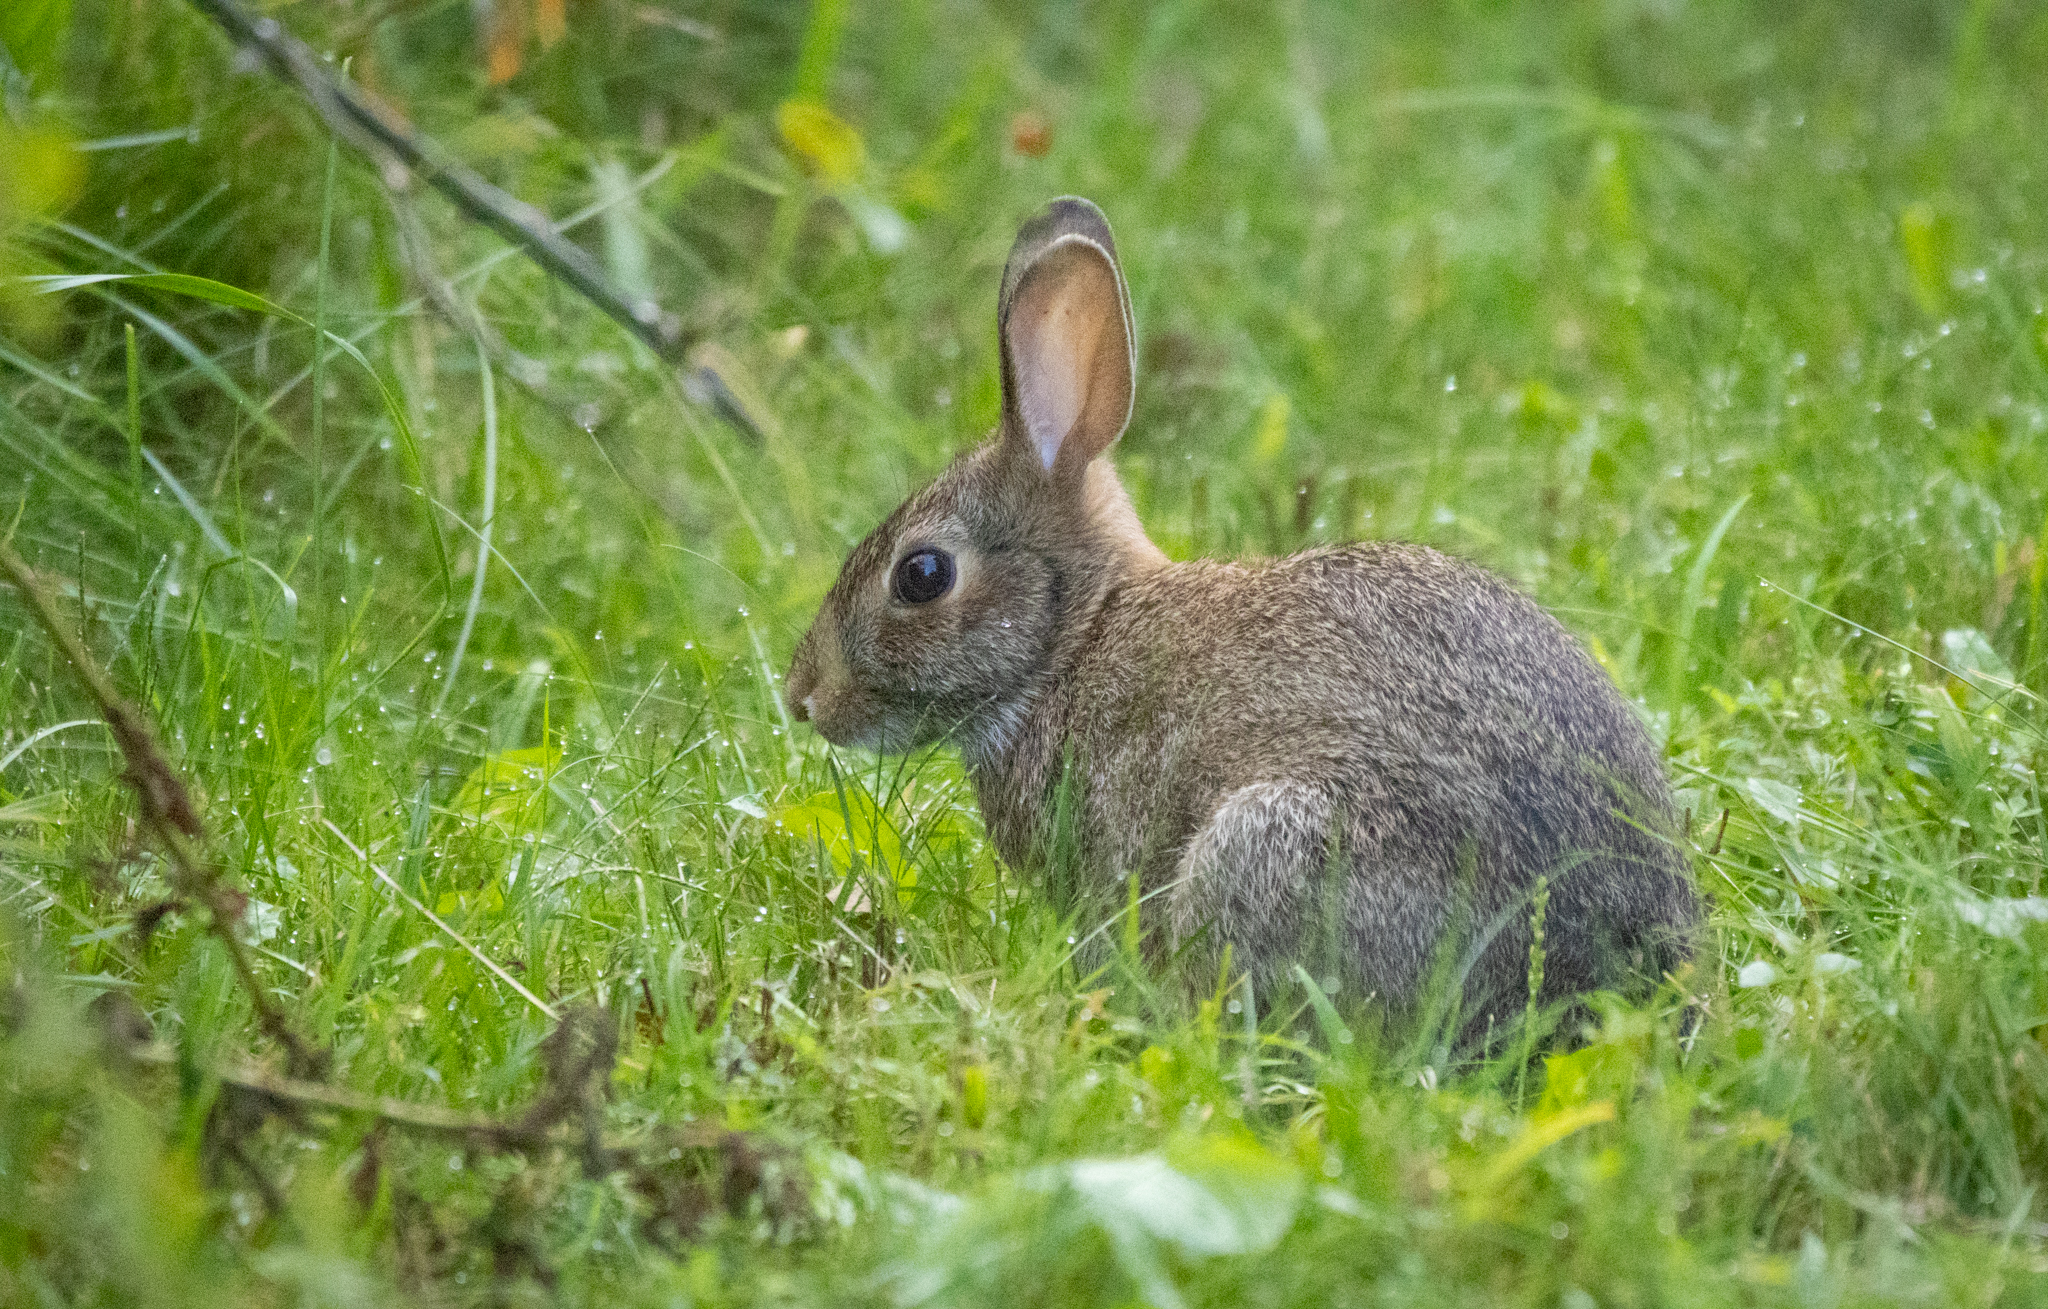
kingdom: Animalia
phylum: Chordata
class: Mammalia
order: Lagomorpha
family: Leporidae
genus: Sylvilagus
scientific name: Sylvilagus floridanus
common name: Eastern cottontail
